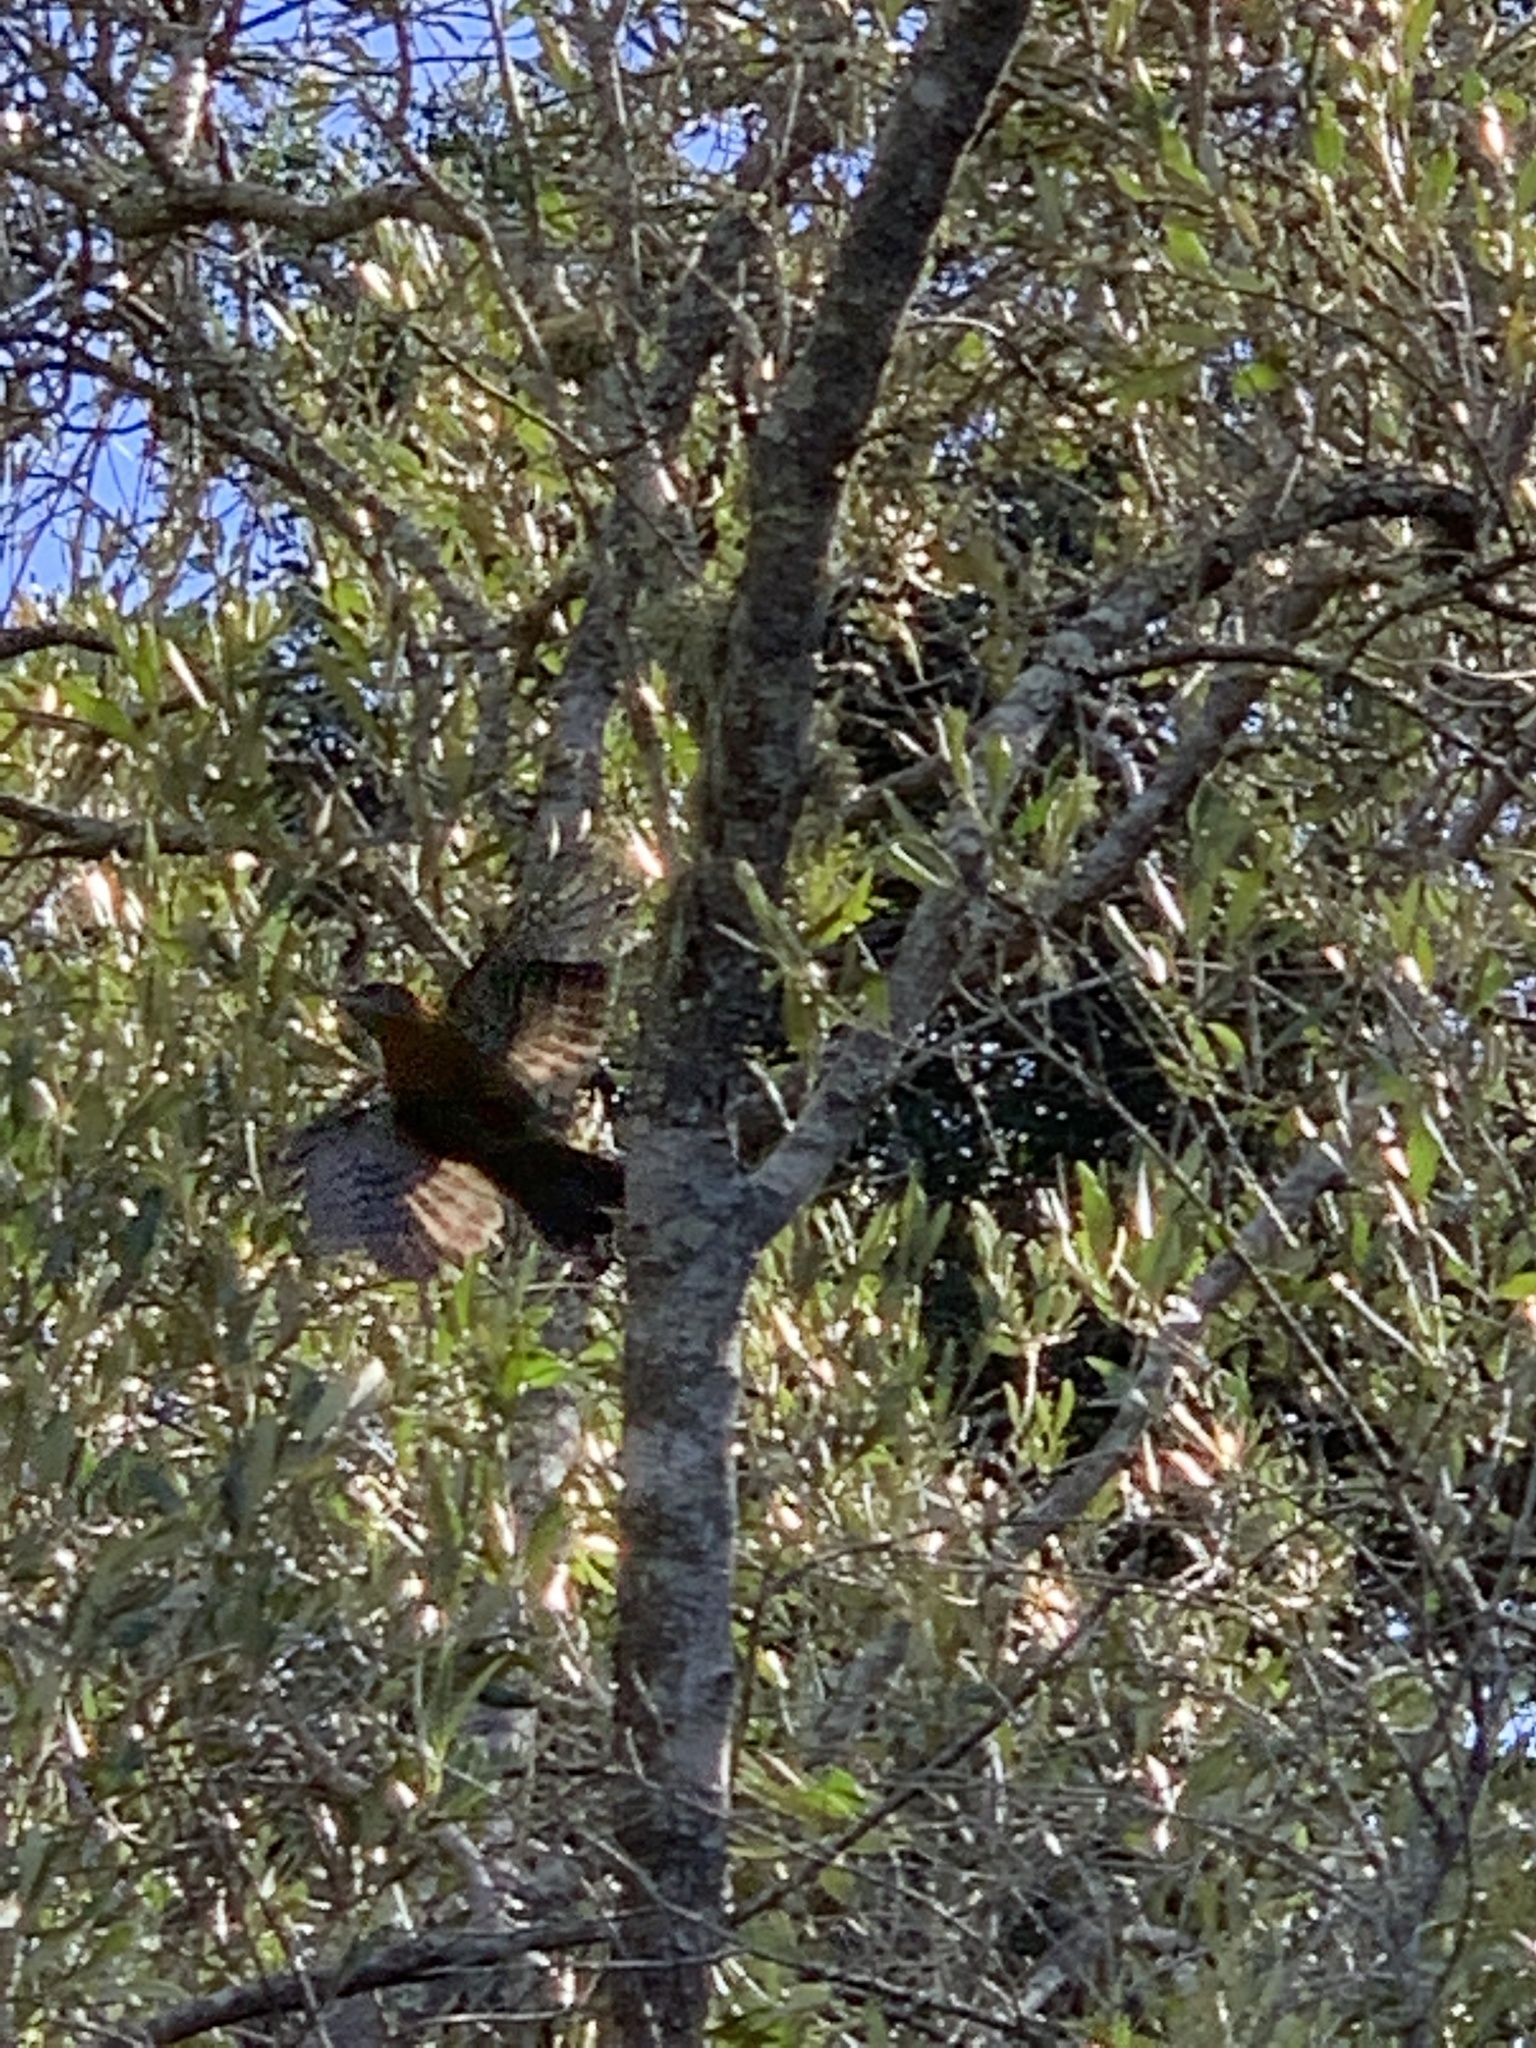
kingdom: Animalia
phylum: Chordata
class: Aves
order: Piciformes
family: Picidae
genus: Dendropicos
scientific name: Dendropicos griseocephalus
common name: Olive woodpecker
